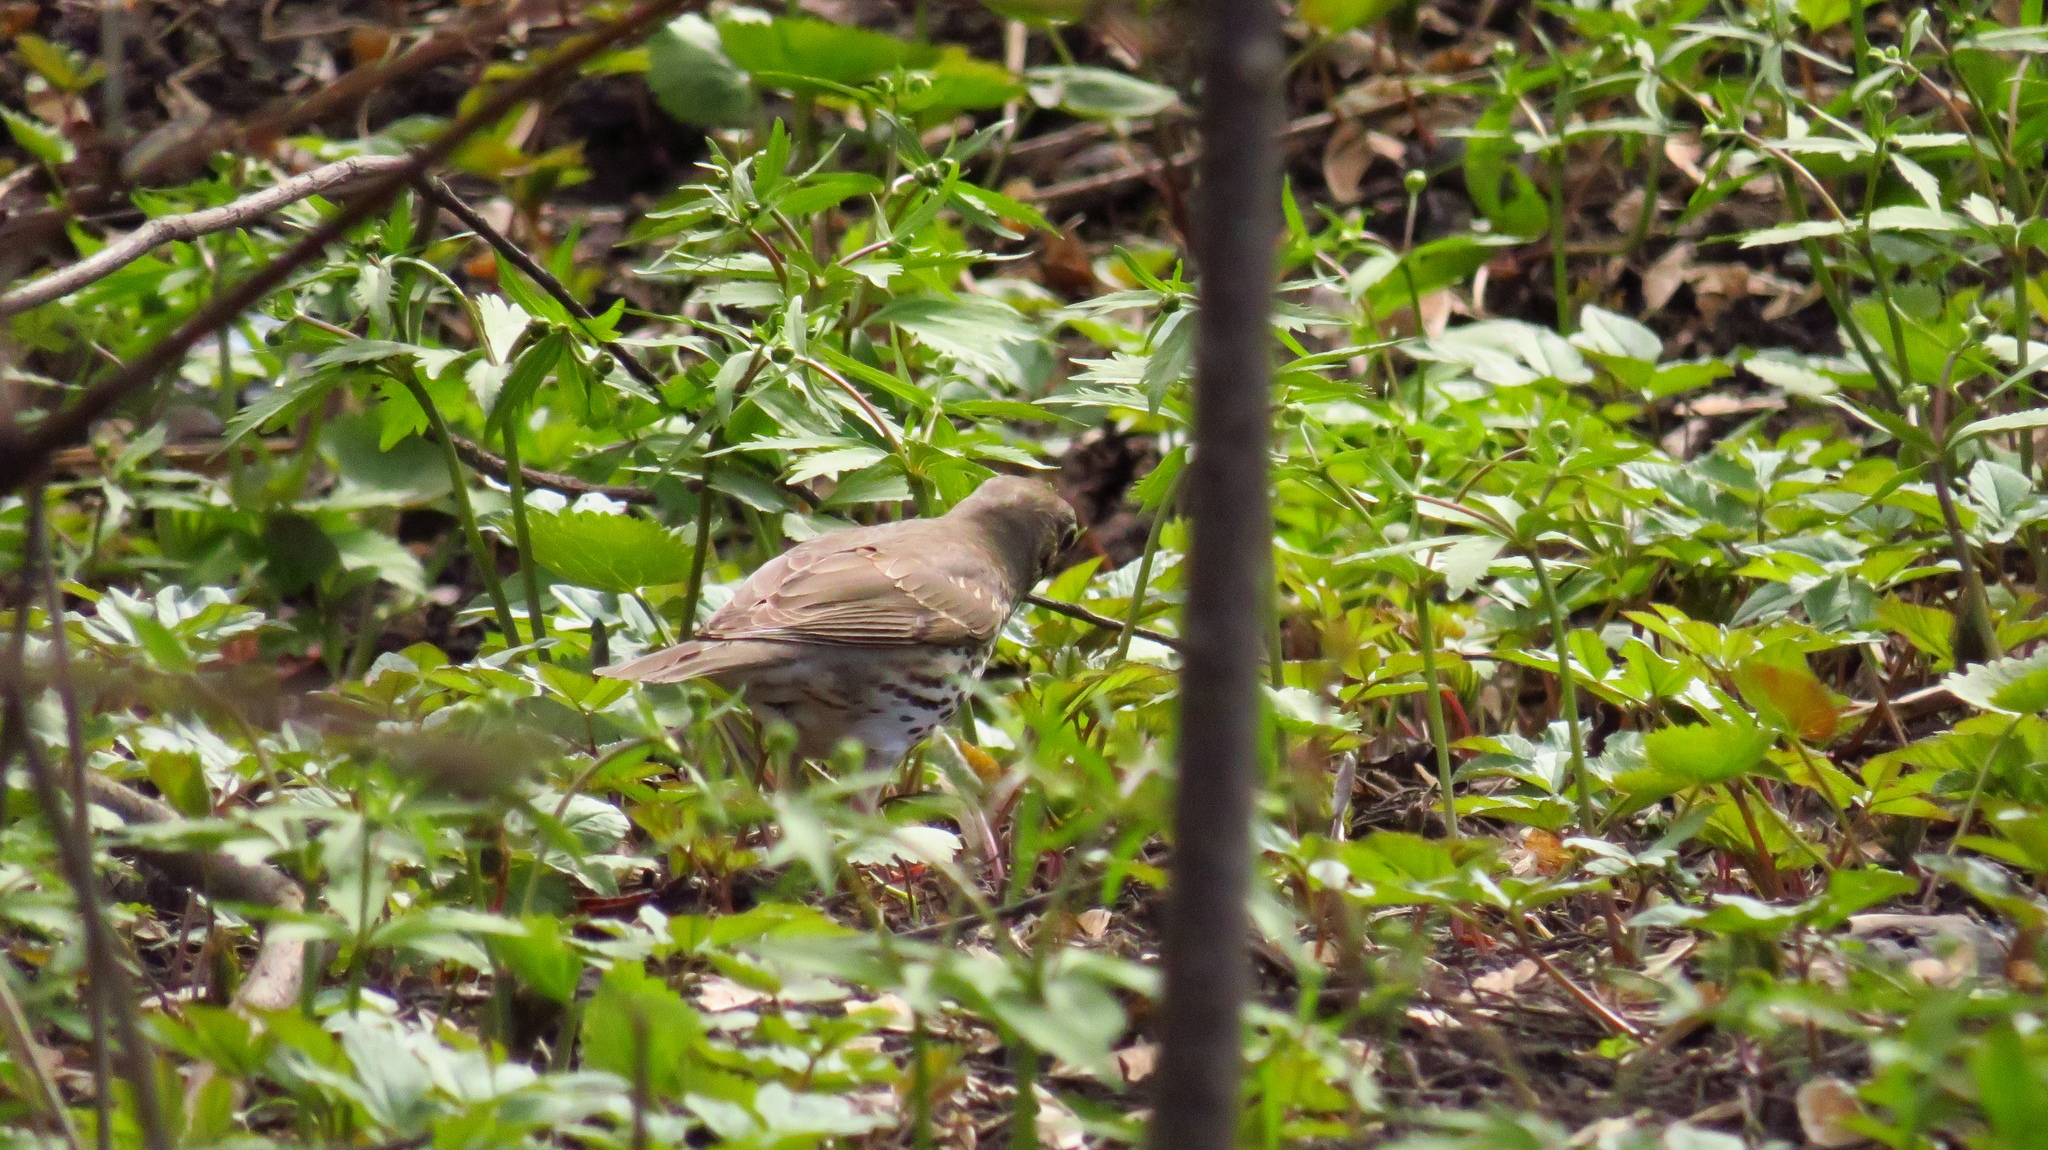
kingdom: Animalia
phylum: Chordata
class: Aves
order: Passeriformes
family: Turdidae
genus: Turdus
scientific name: Turdus philomelos
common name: Song thrush
